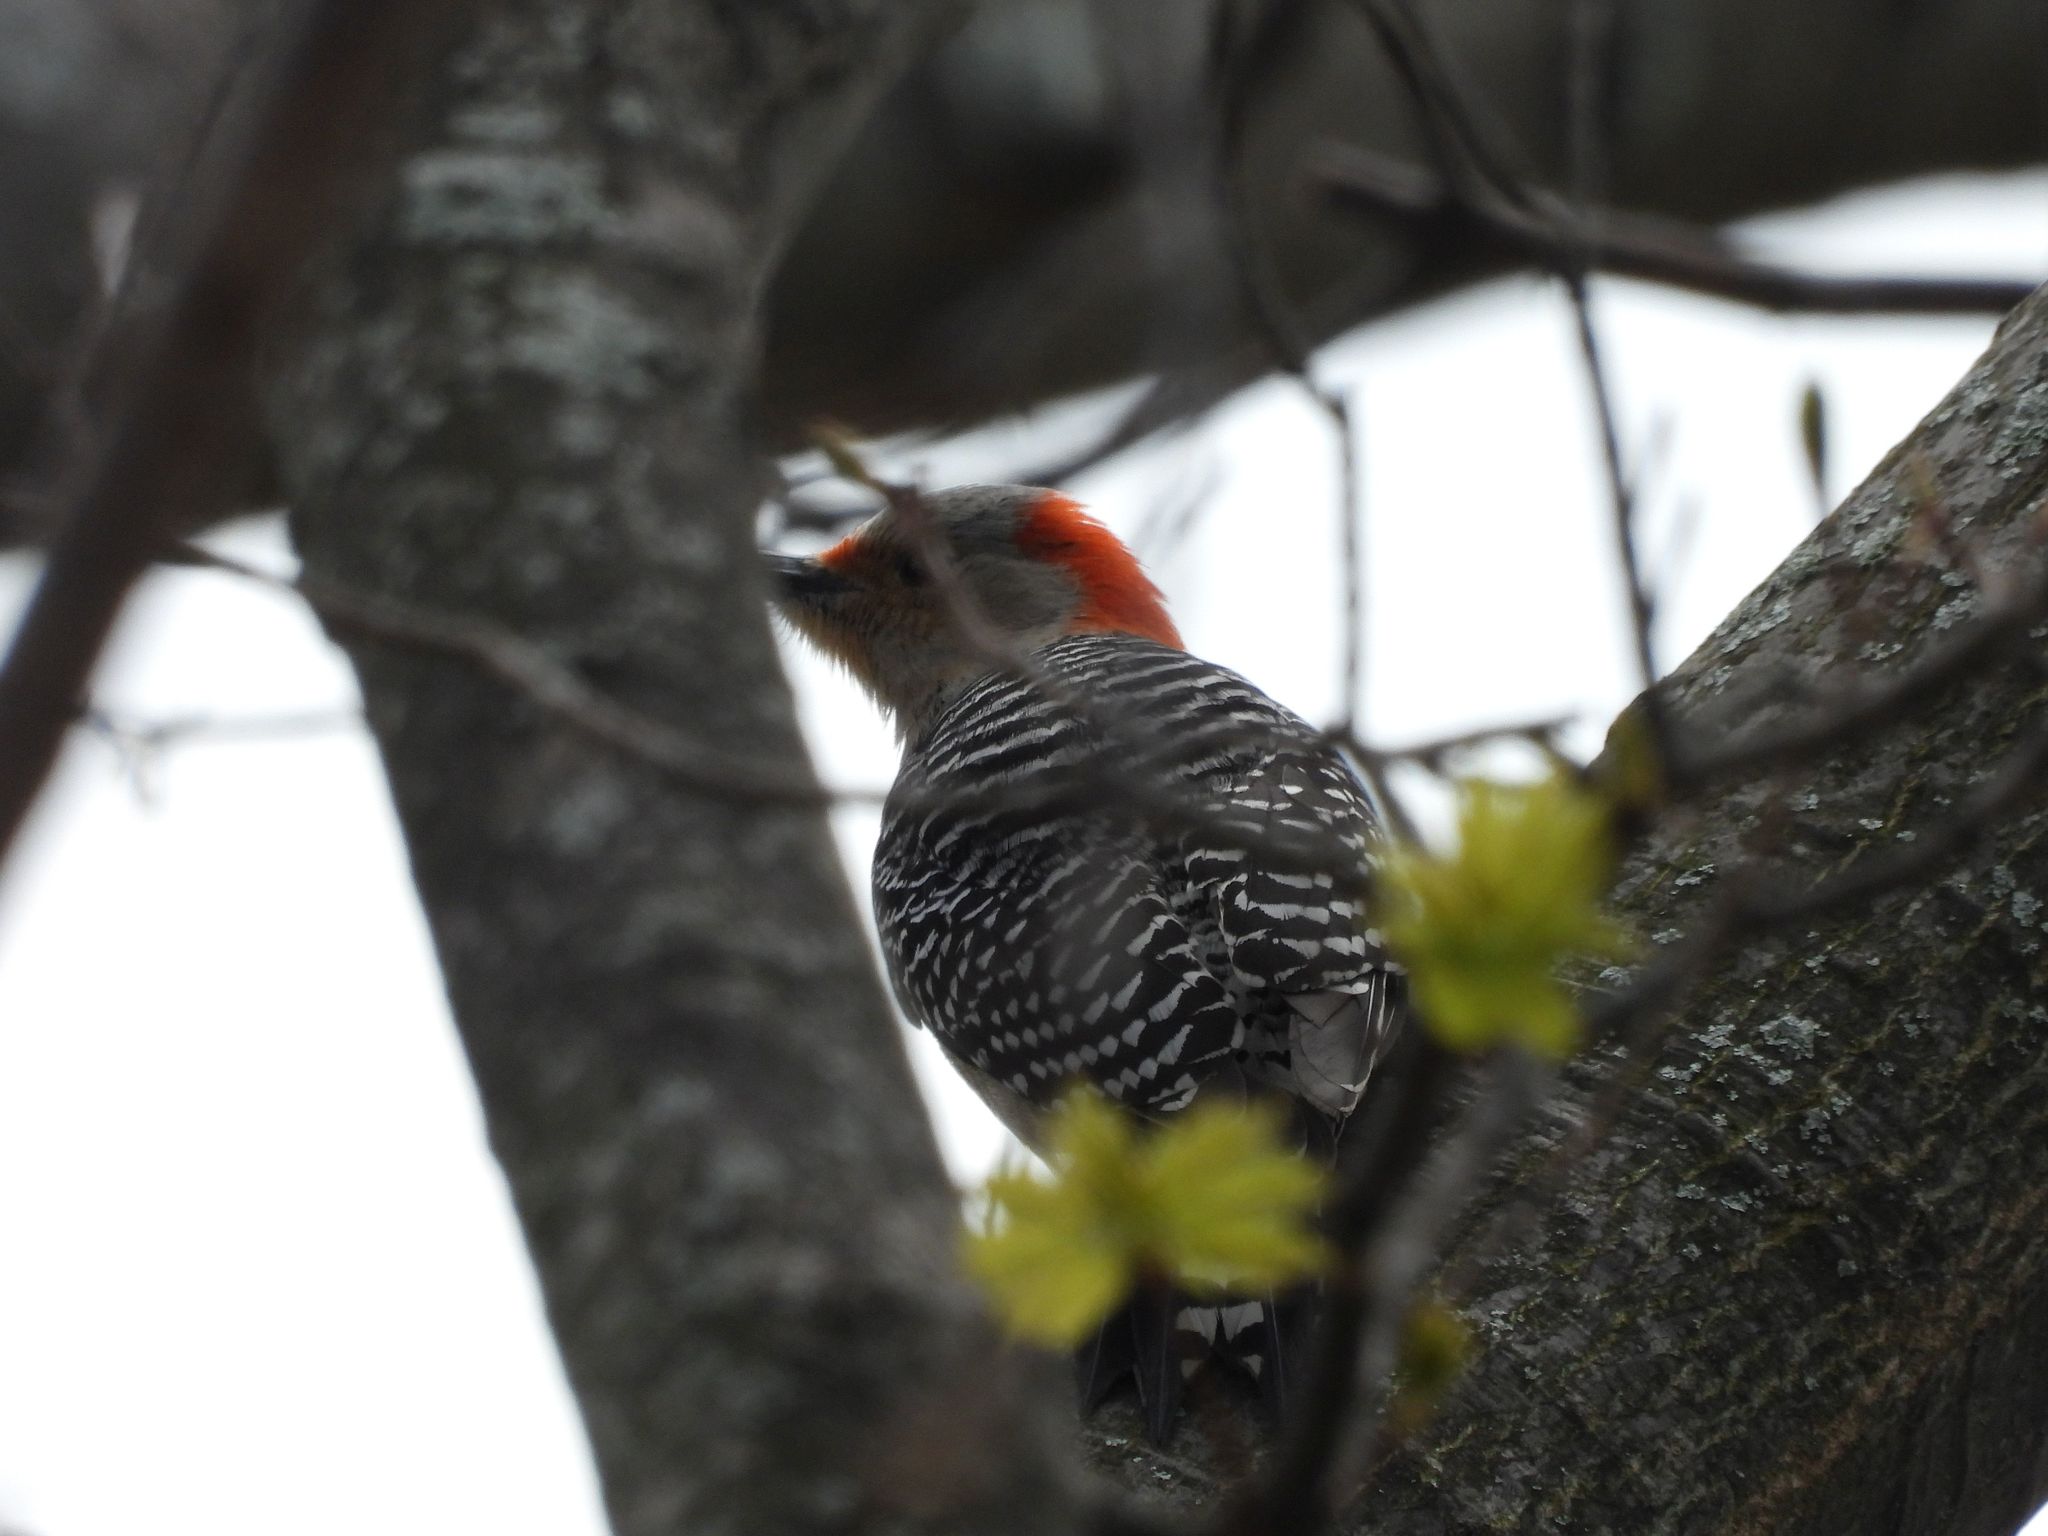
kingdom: Animalia
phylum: Chordata
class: Aves
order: Piciformes
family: Picidae
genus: Melanerpes
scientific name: Melanerpes carolinus
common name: Red-bellied woodpecker
